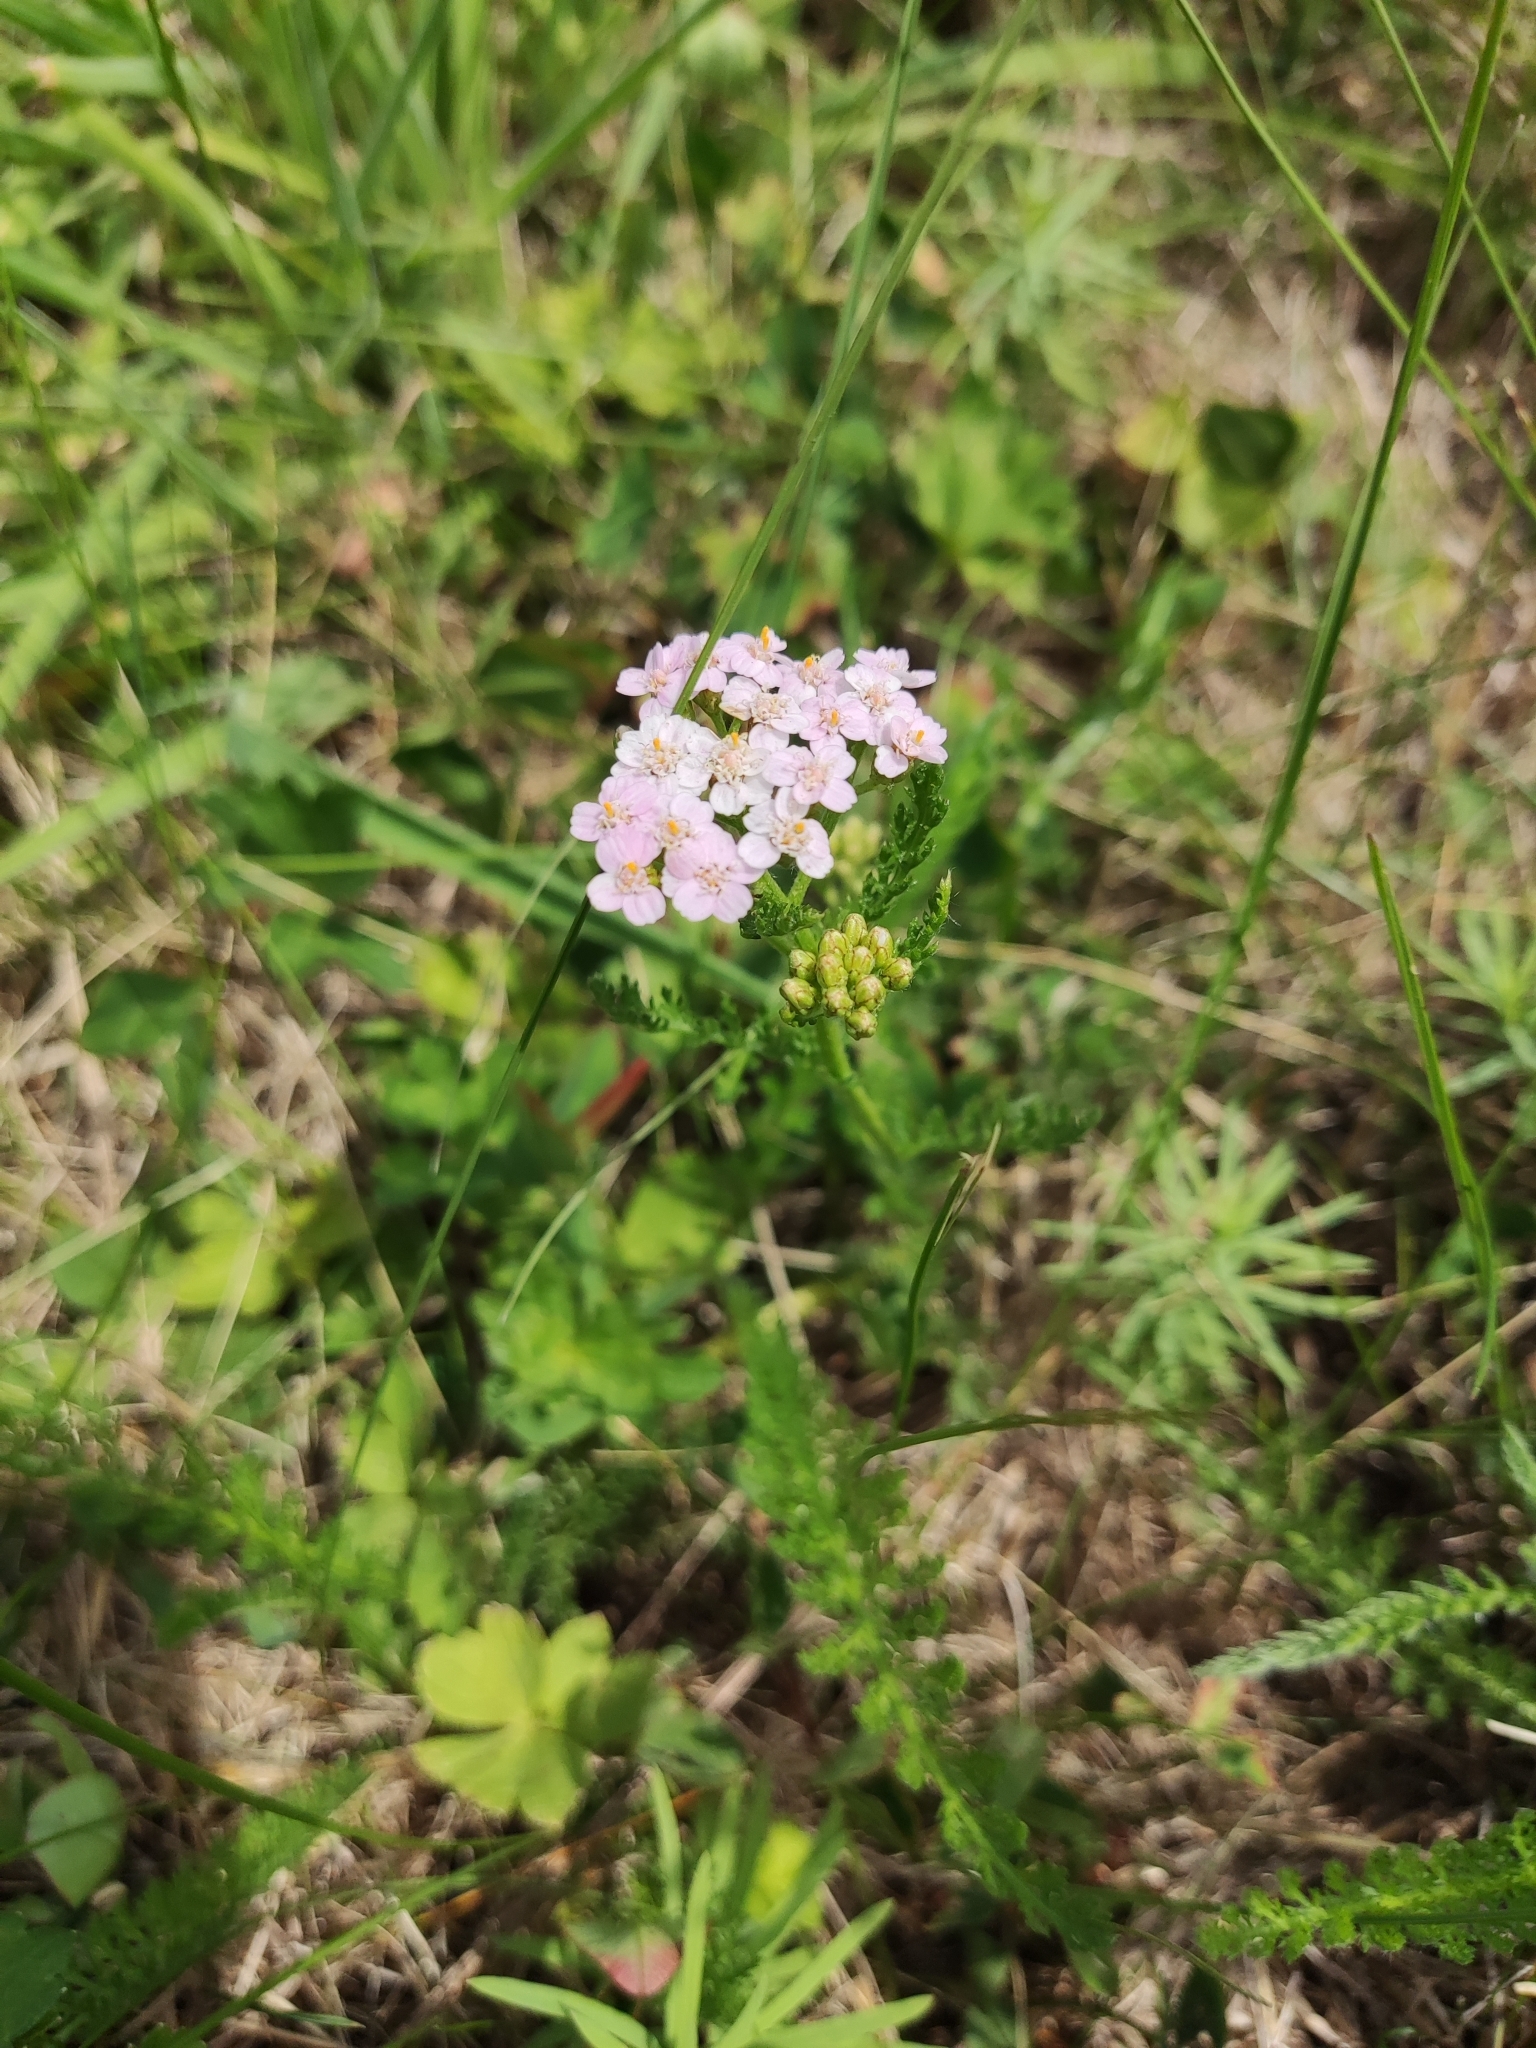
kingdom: Plantae
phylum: Tracheophyta
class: Magnoliopsida
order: Asterales
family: Asteraceae
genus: Achillea
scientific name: Achillea millefolium
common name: Yarrow
